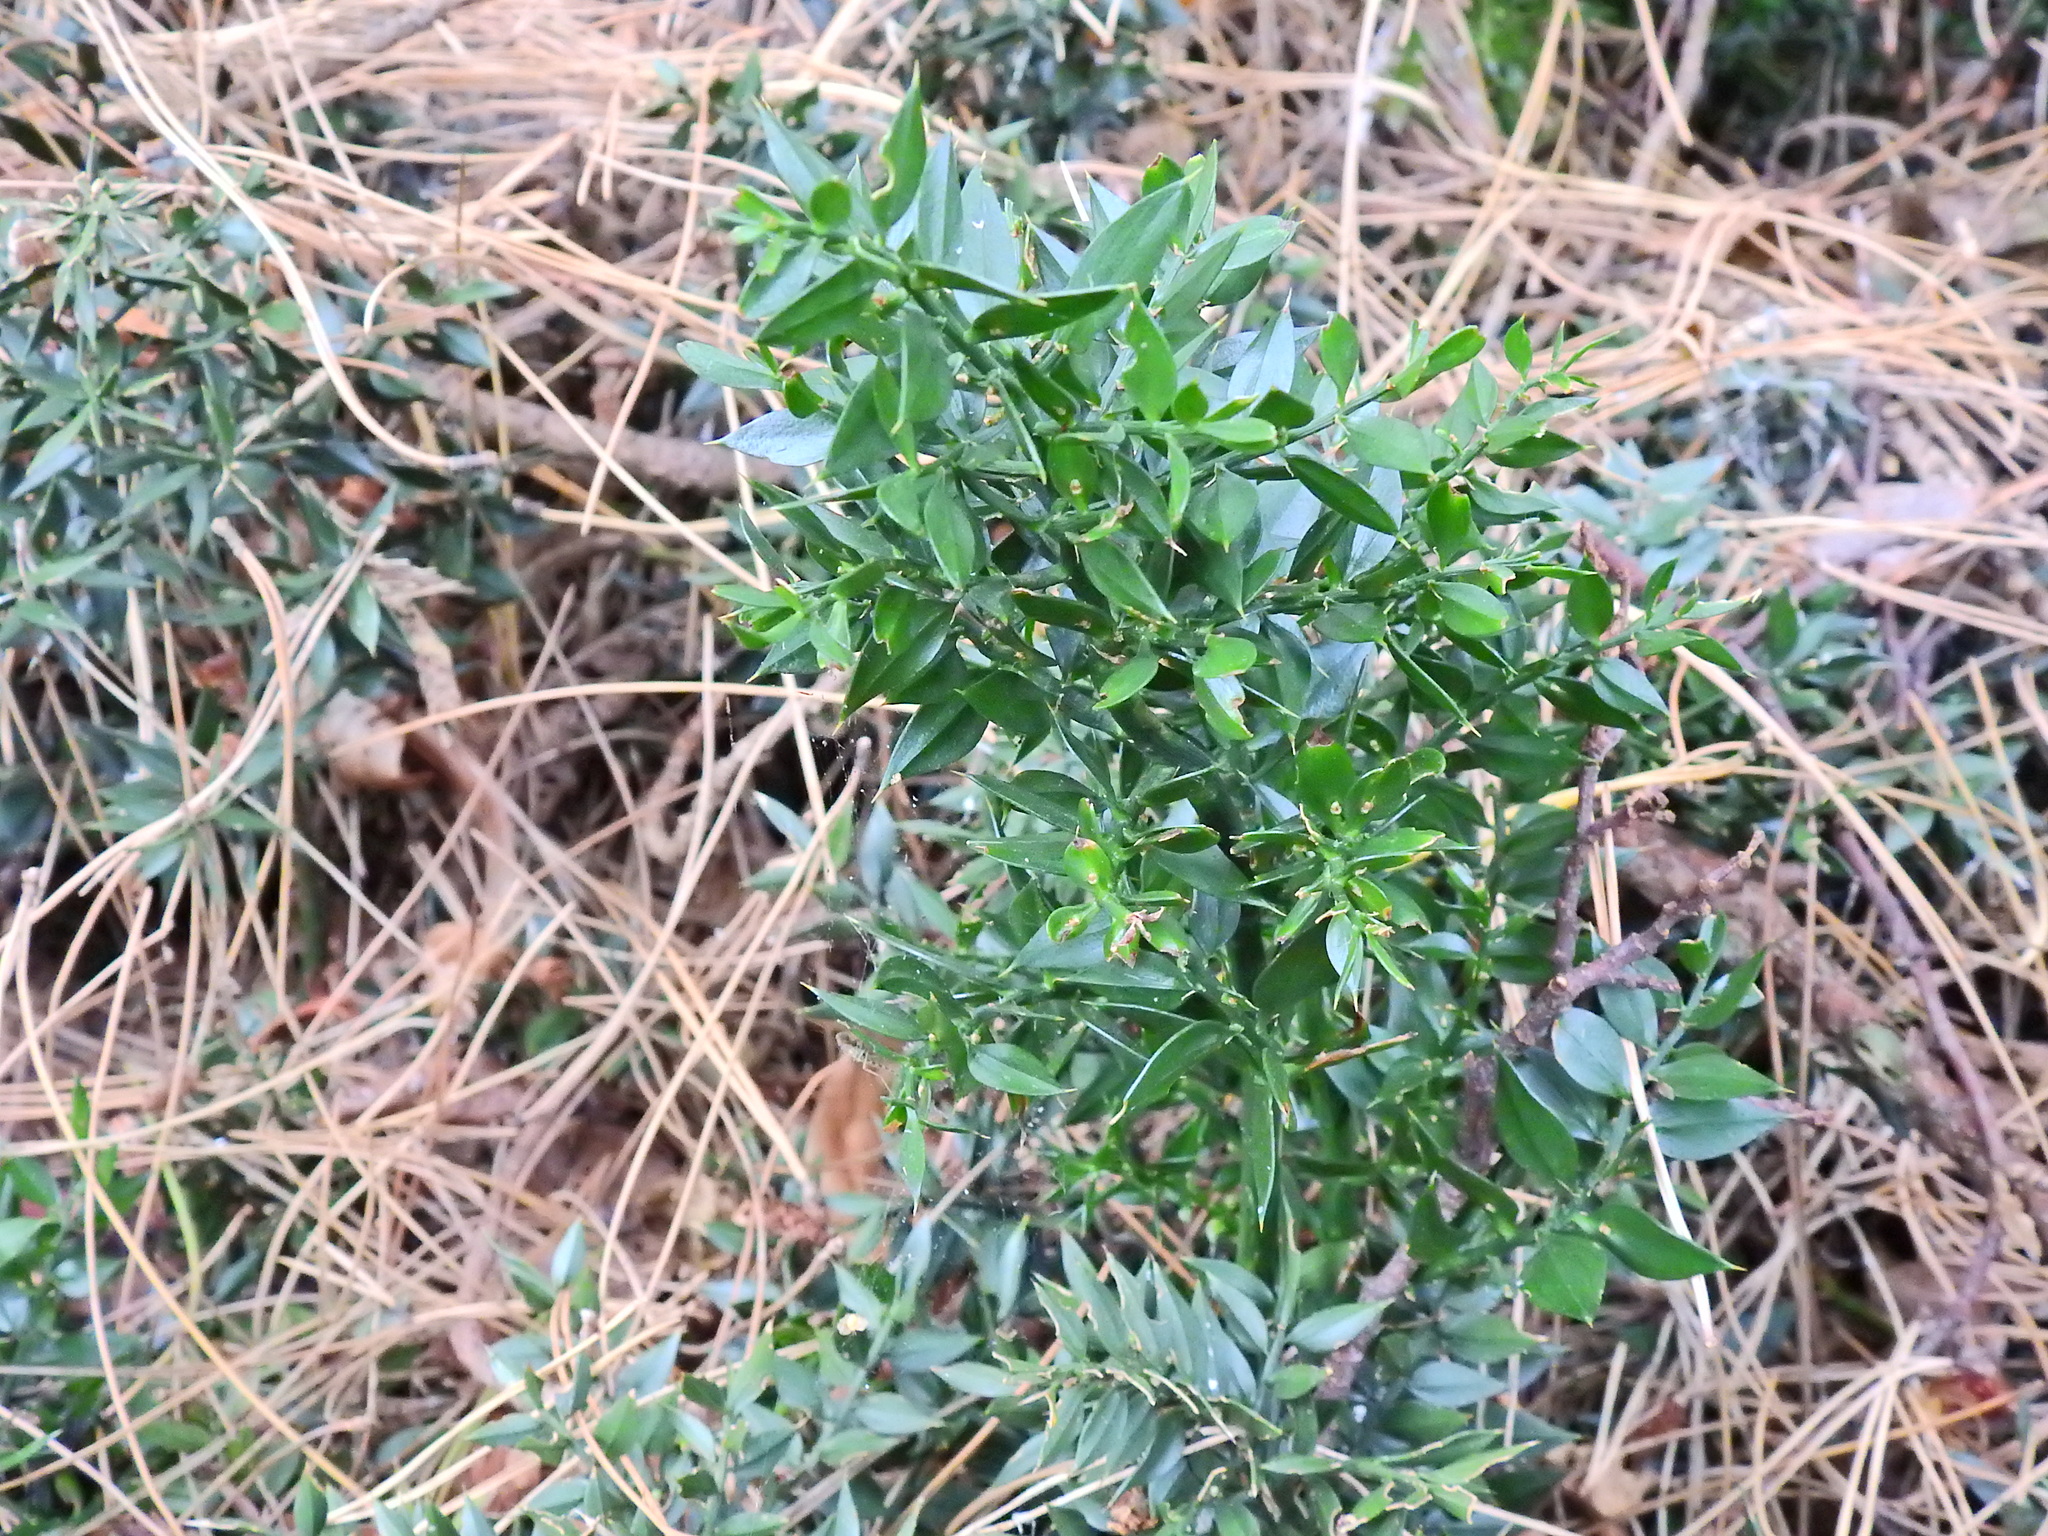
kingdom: Plantae
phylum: Tracheophyta
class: Liliopsida
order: Asparagales
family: Asparagaceae
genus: Ruscus
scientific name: Ruscus aculeatus
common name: Butcher's-broom
